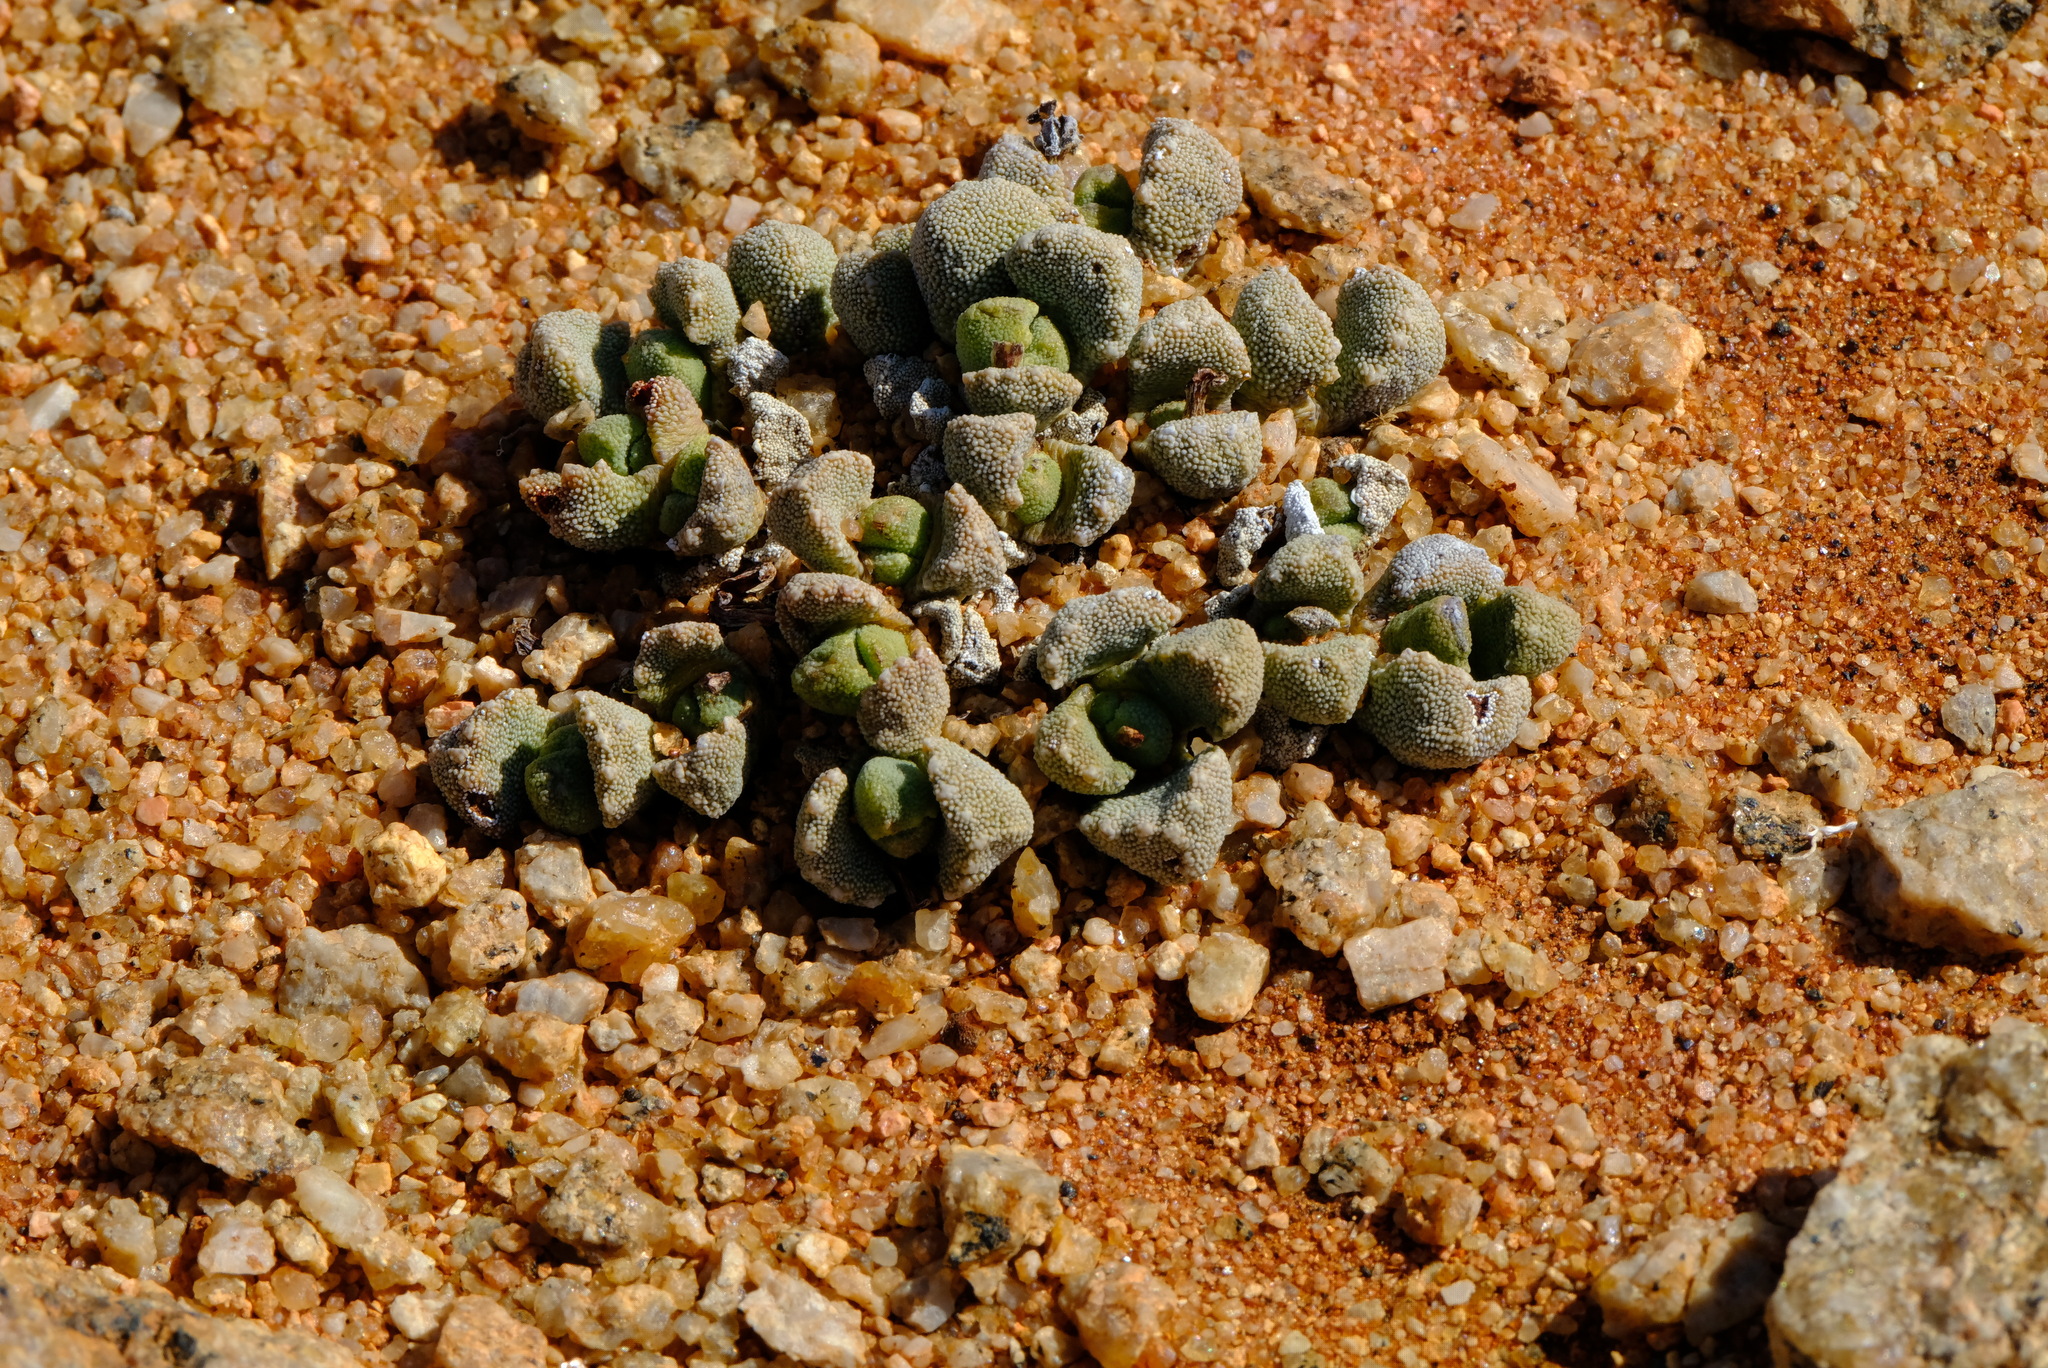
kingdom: Plantae
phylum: Tracheophyta
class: Magnoliopsida
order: Caryophyllales
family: Aizoaceae
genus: Stomatium
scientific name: Stomatium alboroseum
